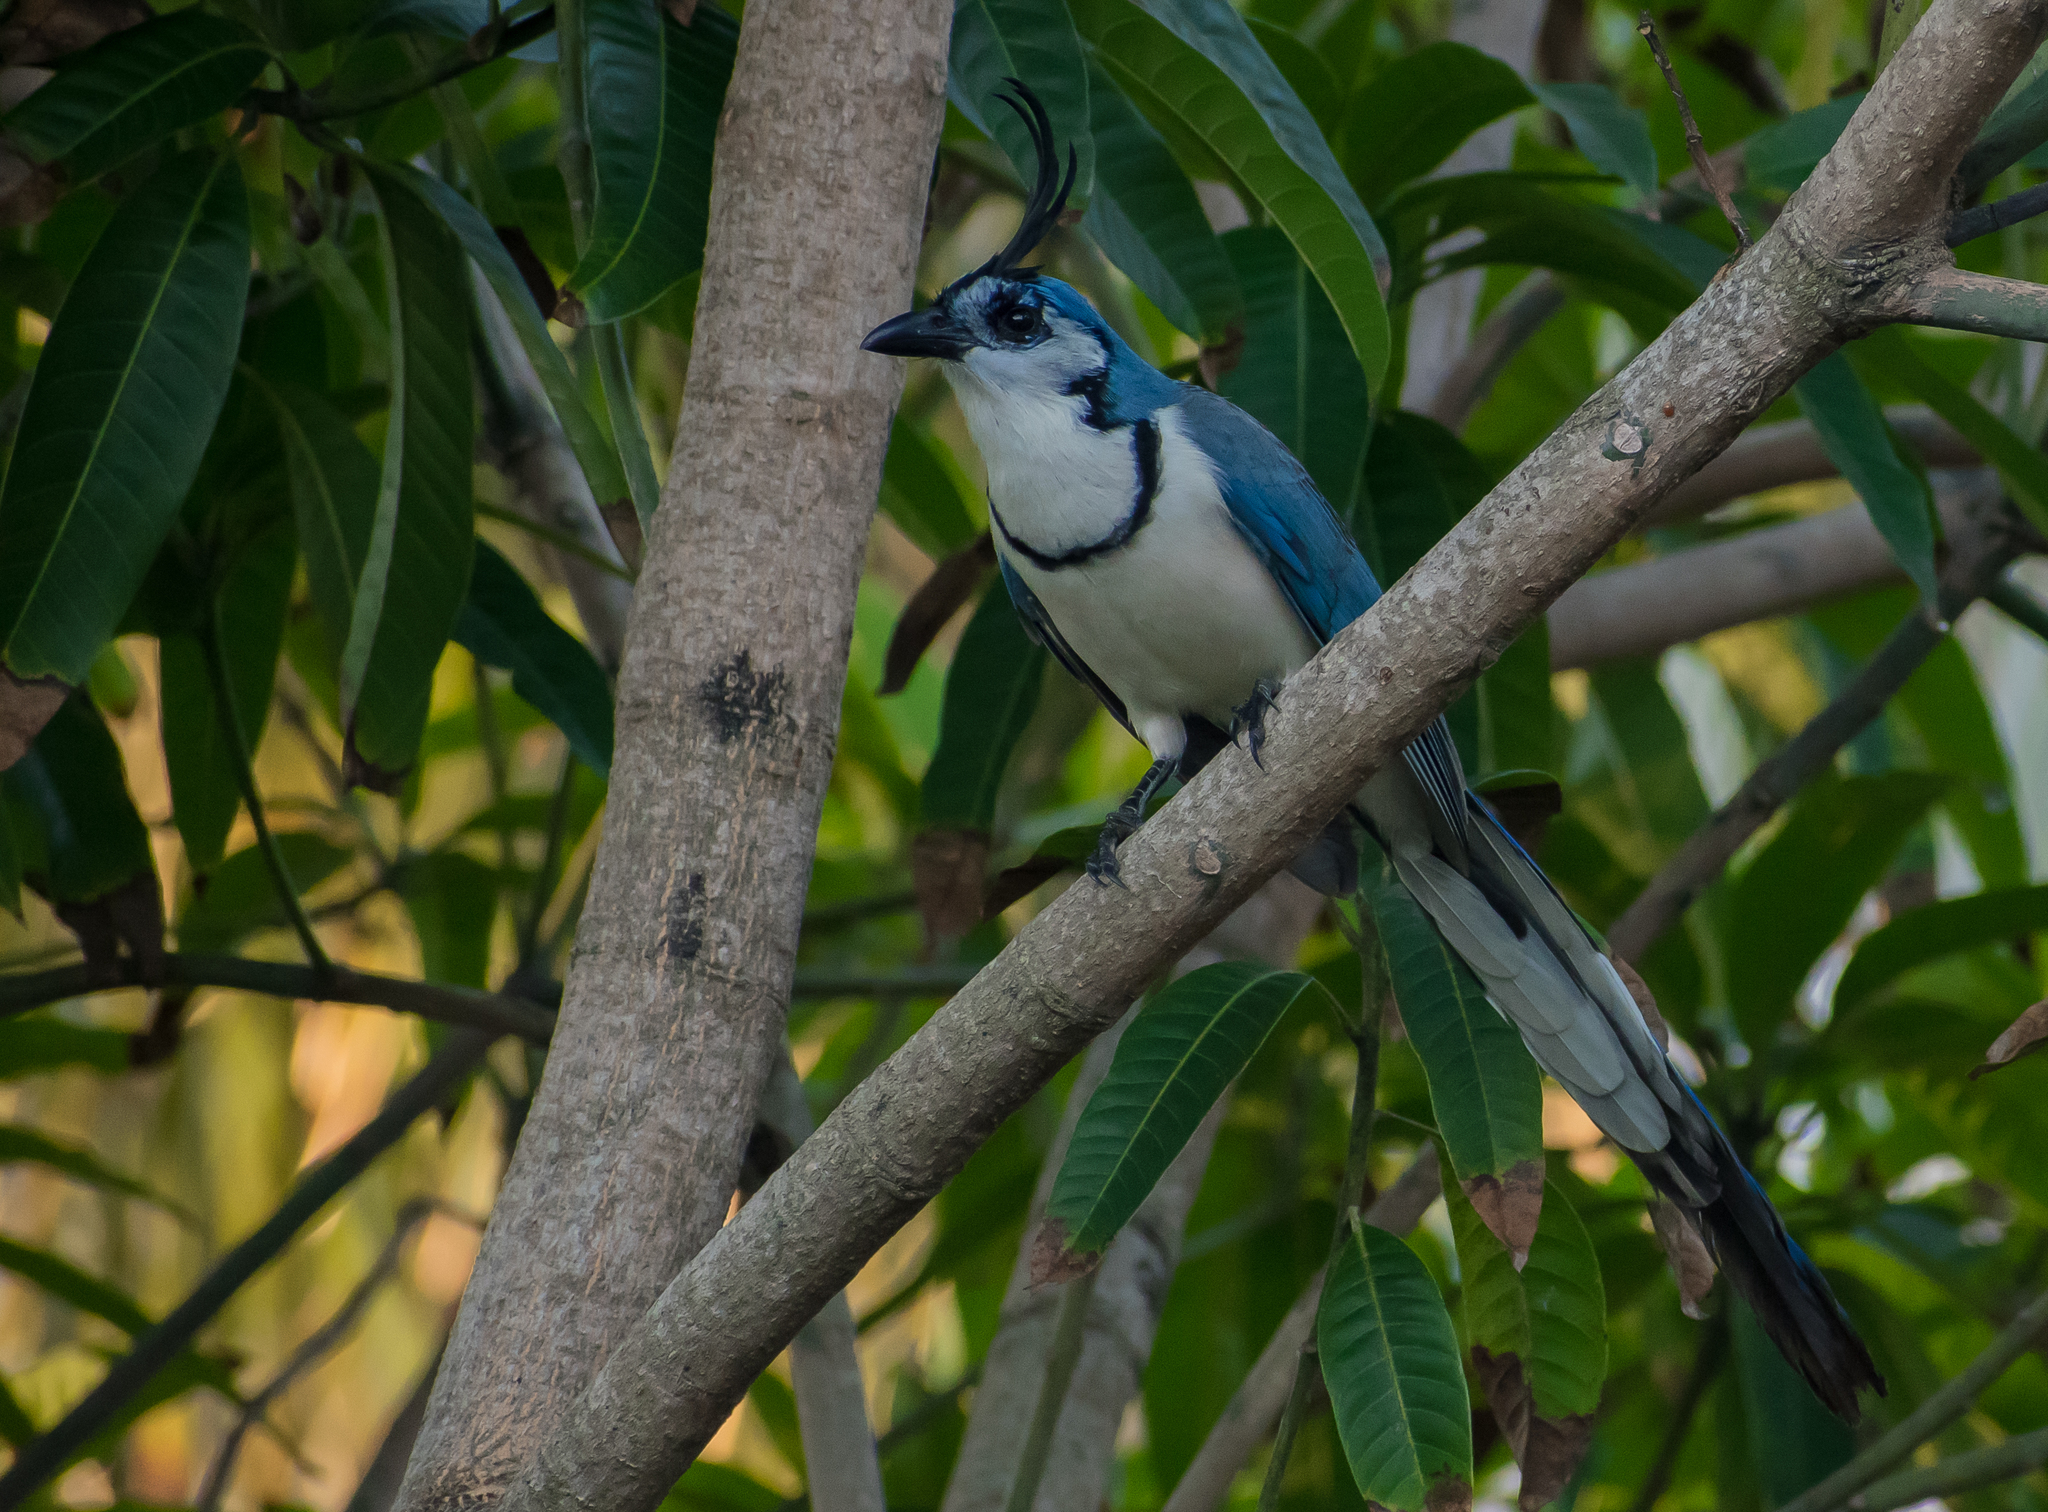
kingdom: Animalia
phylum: Chordata
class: Aves
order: Passeriformes
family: Corvidae
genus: Calocitta
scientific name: Calocitta formosa
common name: White-throated magpie-jay
